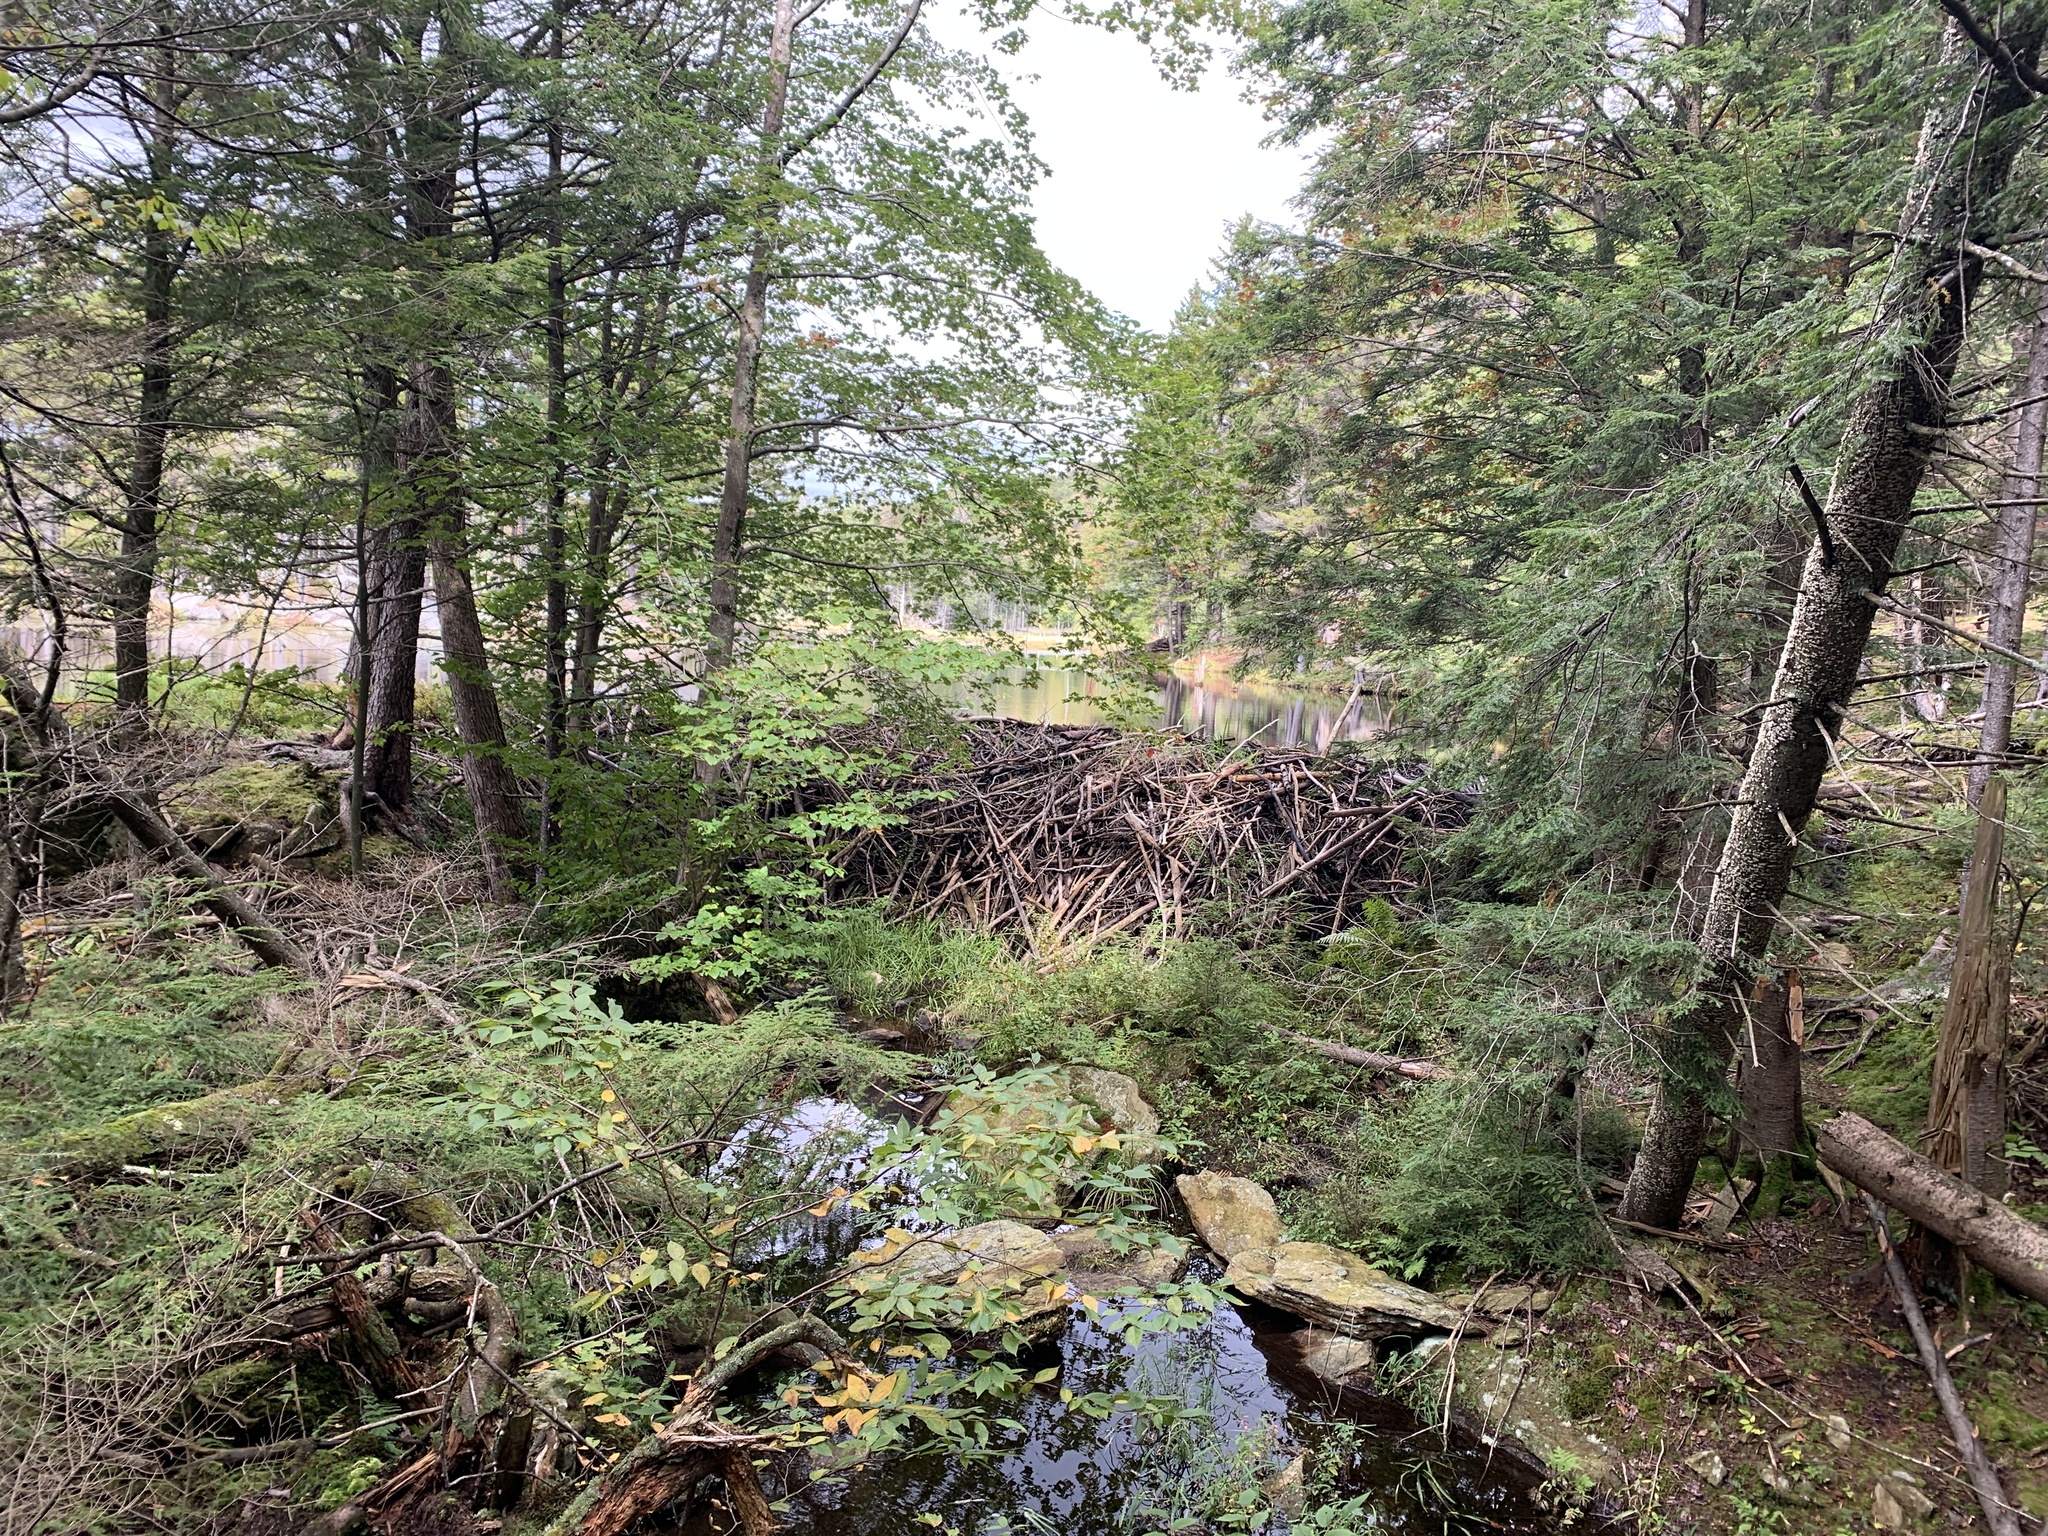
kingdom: Animalia
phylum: Chordata
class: Mammalia
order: Rodentia
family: Castoridae
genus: Castor
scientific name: Castor canadensis
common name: American beaver
